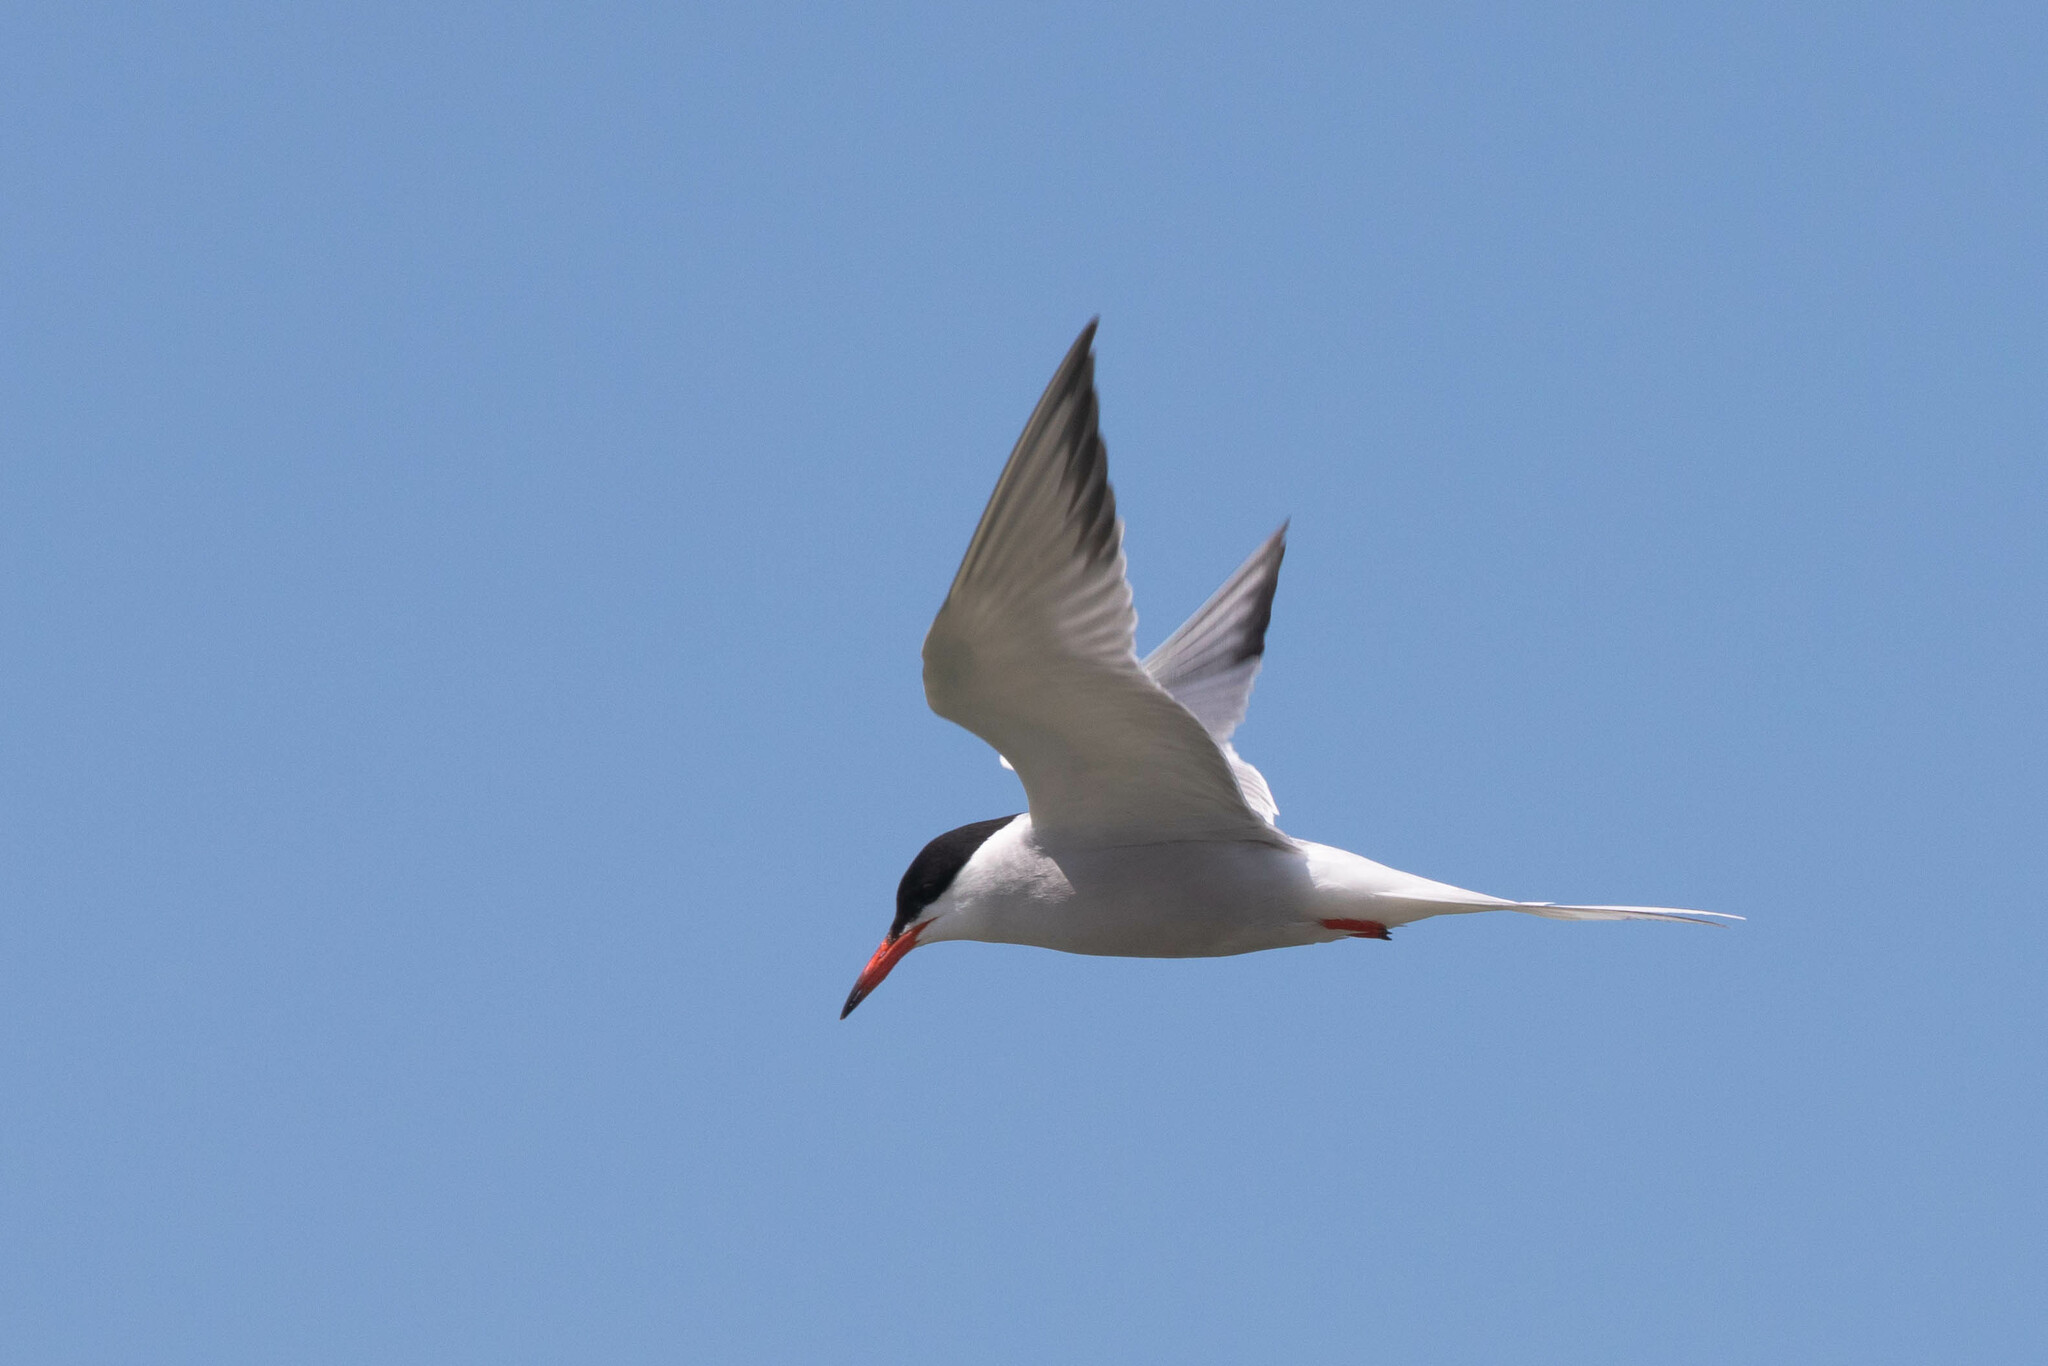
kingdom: Animalia
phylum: Chordata
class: Aves
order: Charadriiformes
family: Laridae
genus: Sterna
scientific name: Sterna hirundo
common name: Common tern
